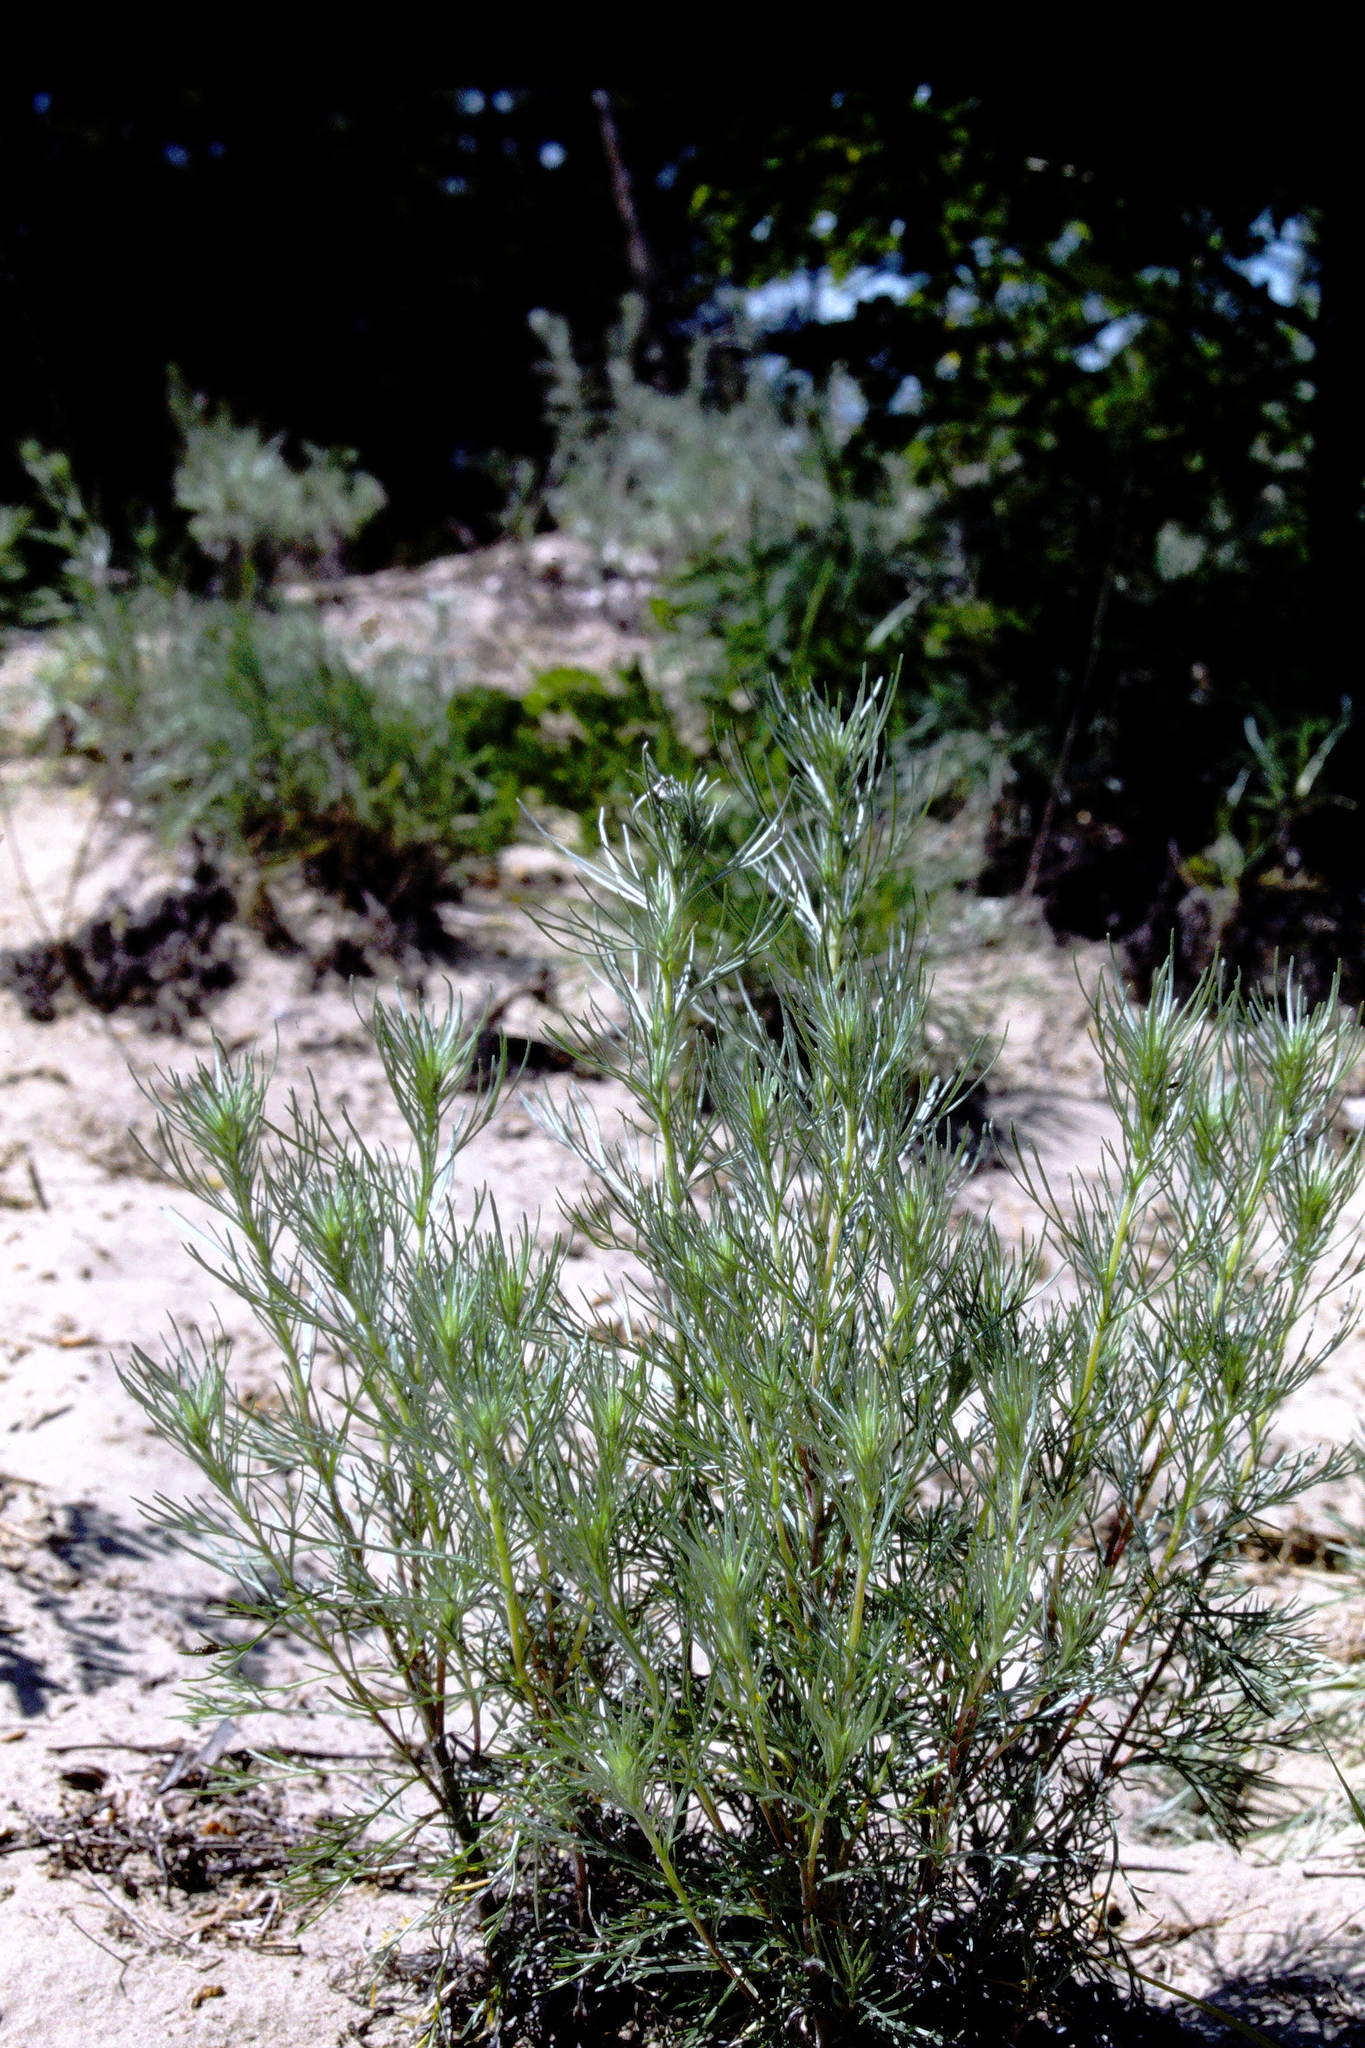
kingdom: Plantae
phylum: Tracheophyta
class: Magnoliopsida
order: Asterales
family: Asteraceae
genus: Artemisia
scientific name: Artemisia campestris
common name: Field wormwood
